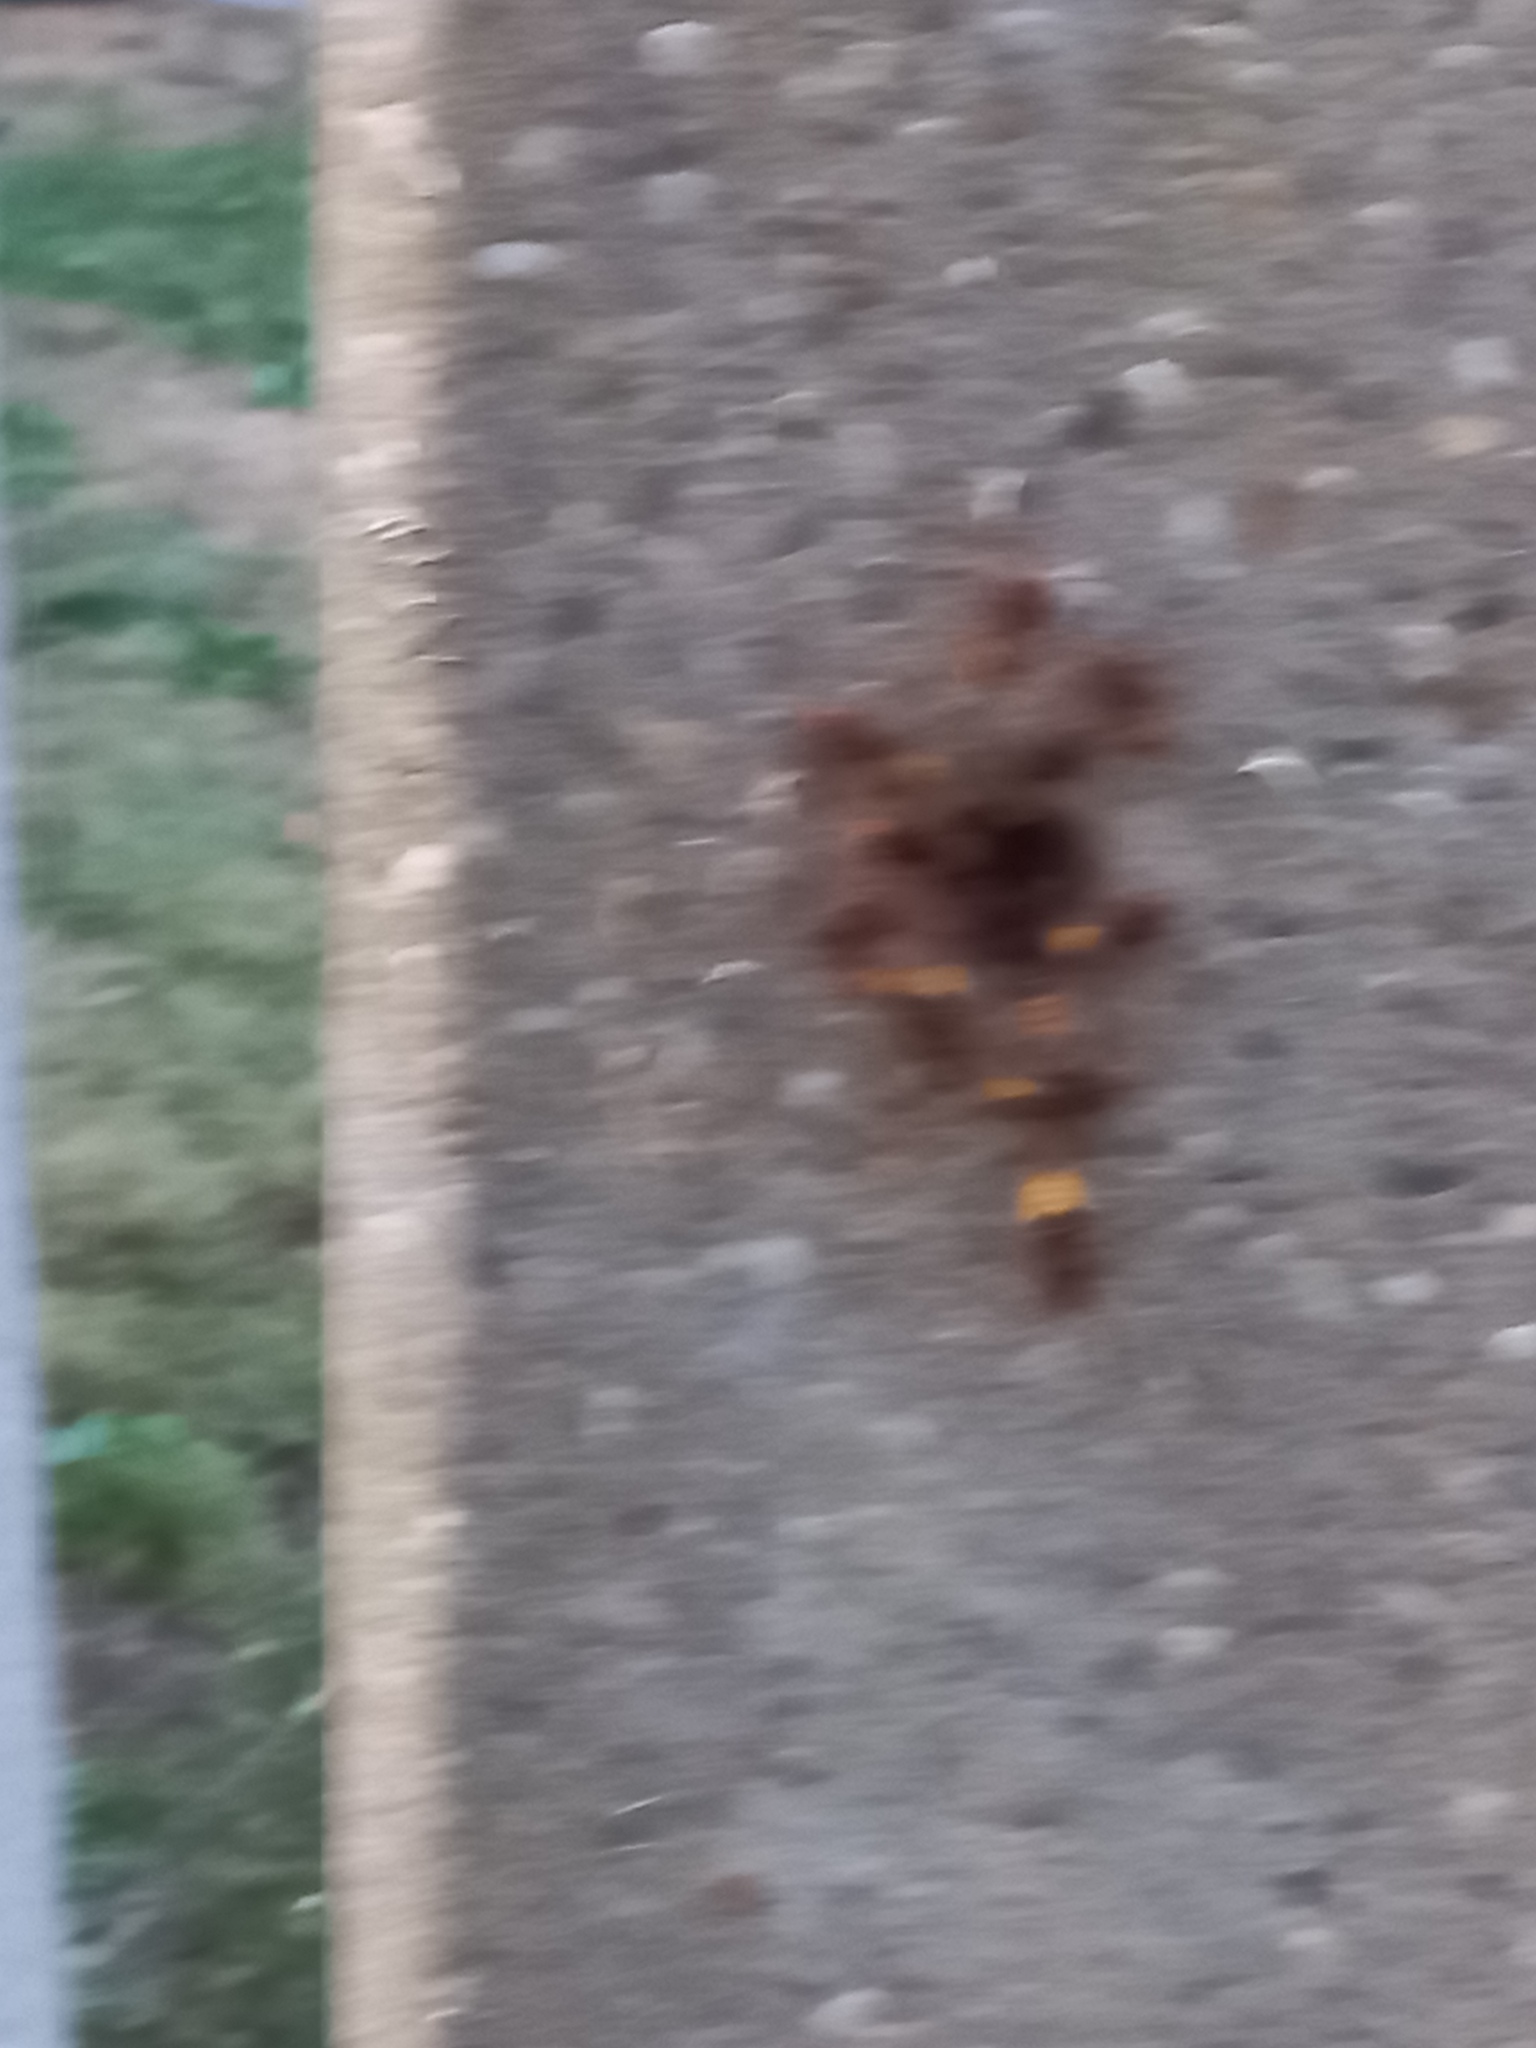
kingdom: Animalia
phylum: Arthropoda
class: Insecta
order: Hymenoptera
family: Vespidae
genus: Vespa
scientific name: Vespa crabro
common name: Hornet
